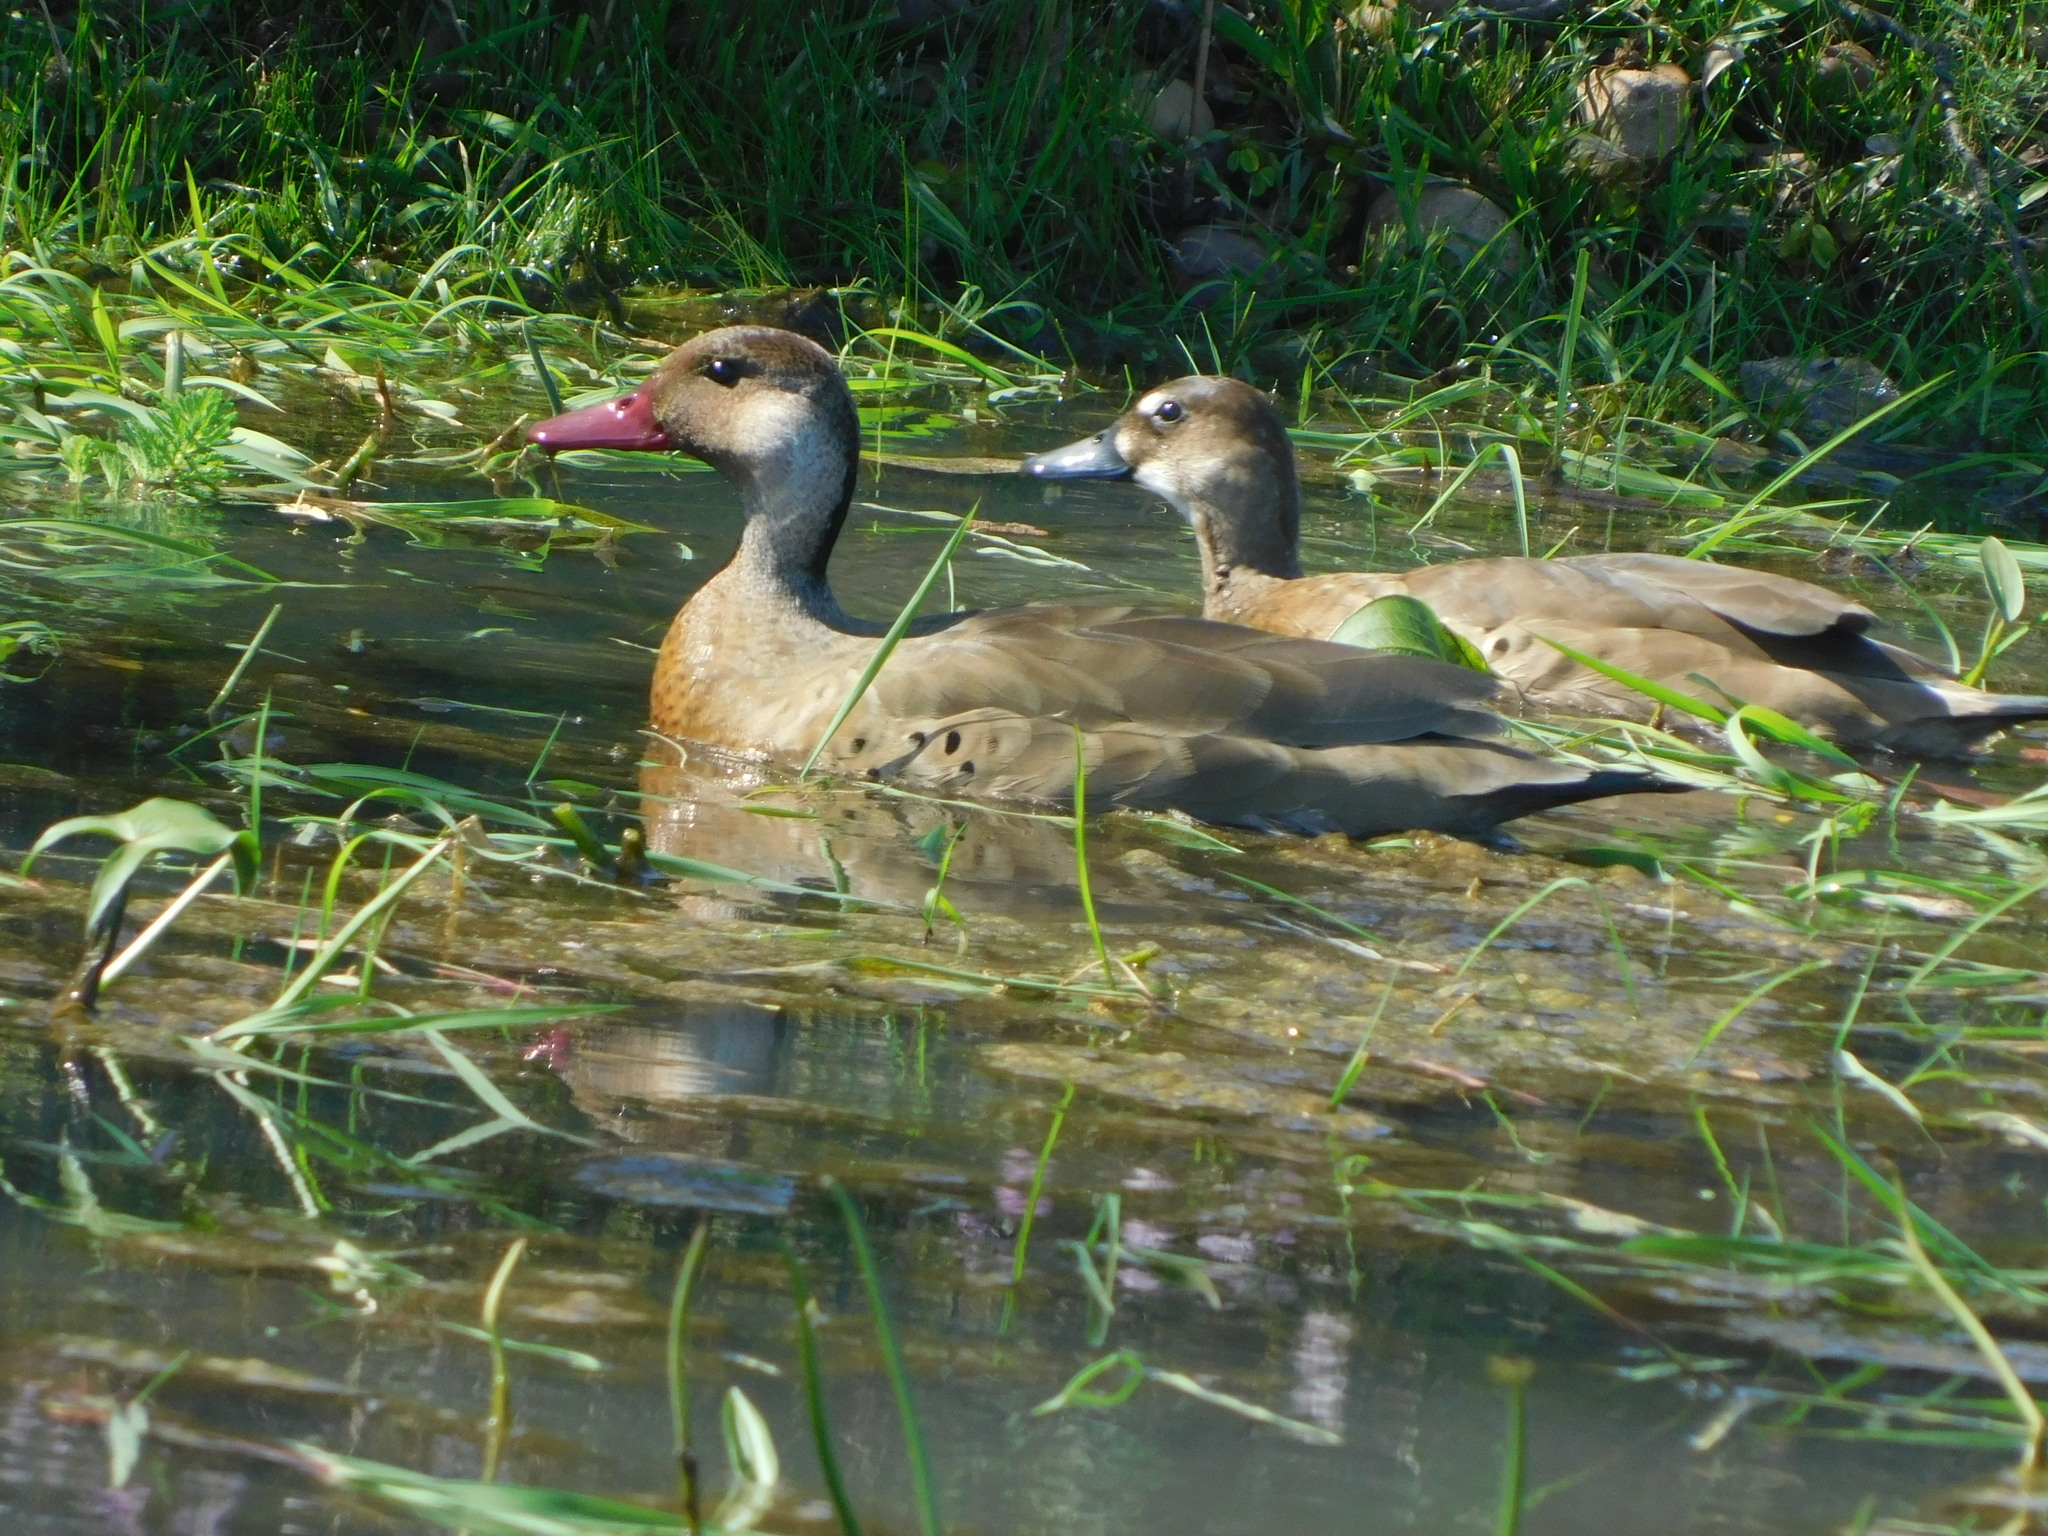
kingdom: Animalia
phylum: Chordata
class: Aves
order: Anseriformes
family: Anatidae
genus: Amazonetta
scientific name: Amazonetta brasiliensis
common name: Brazilian teal
